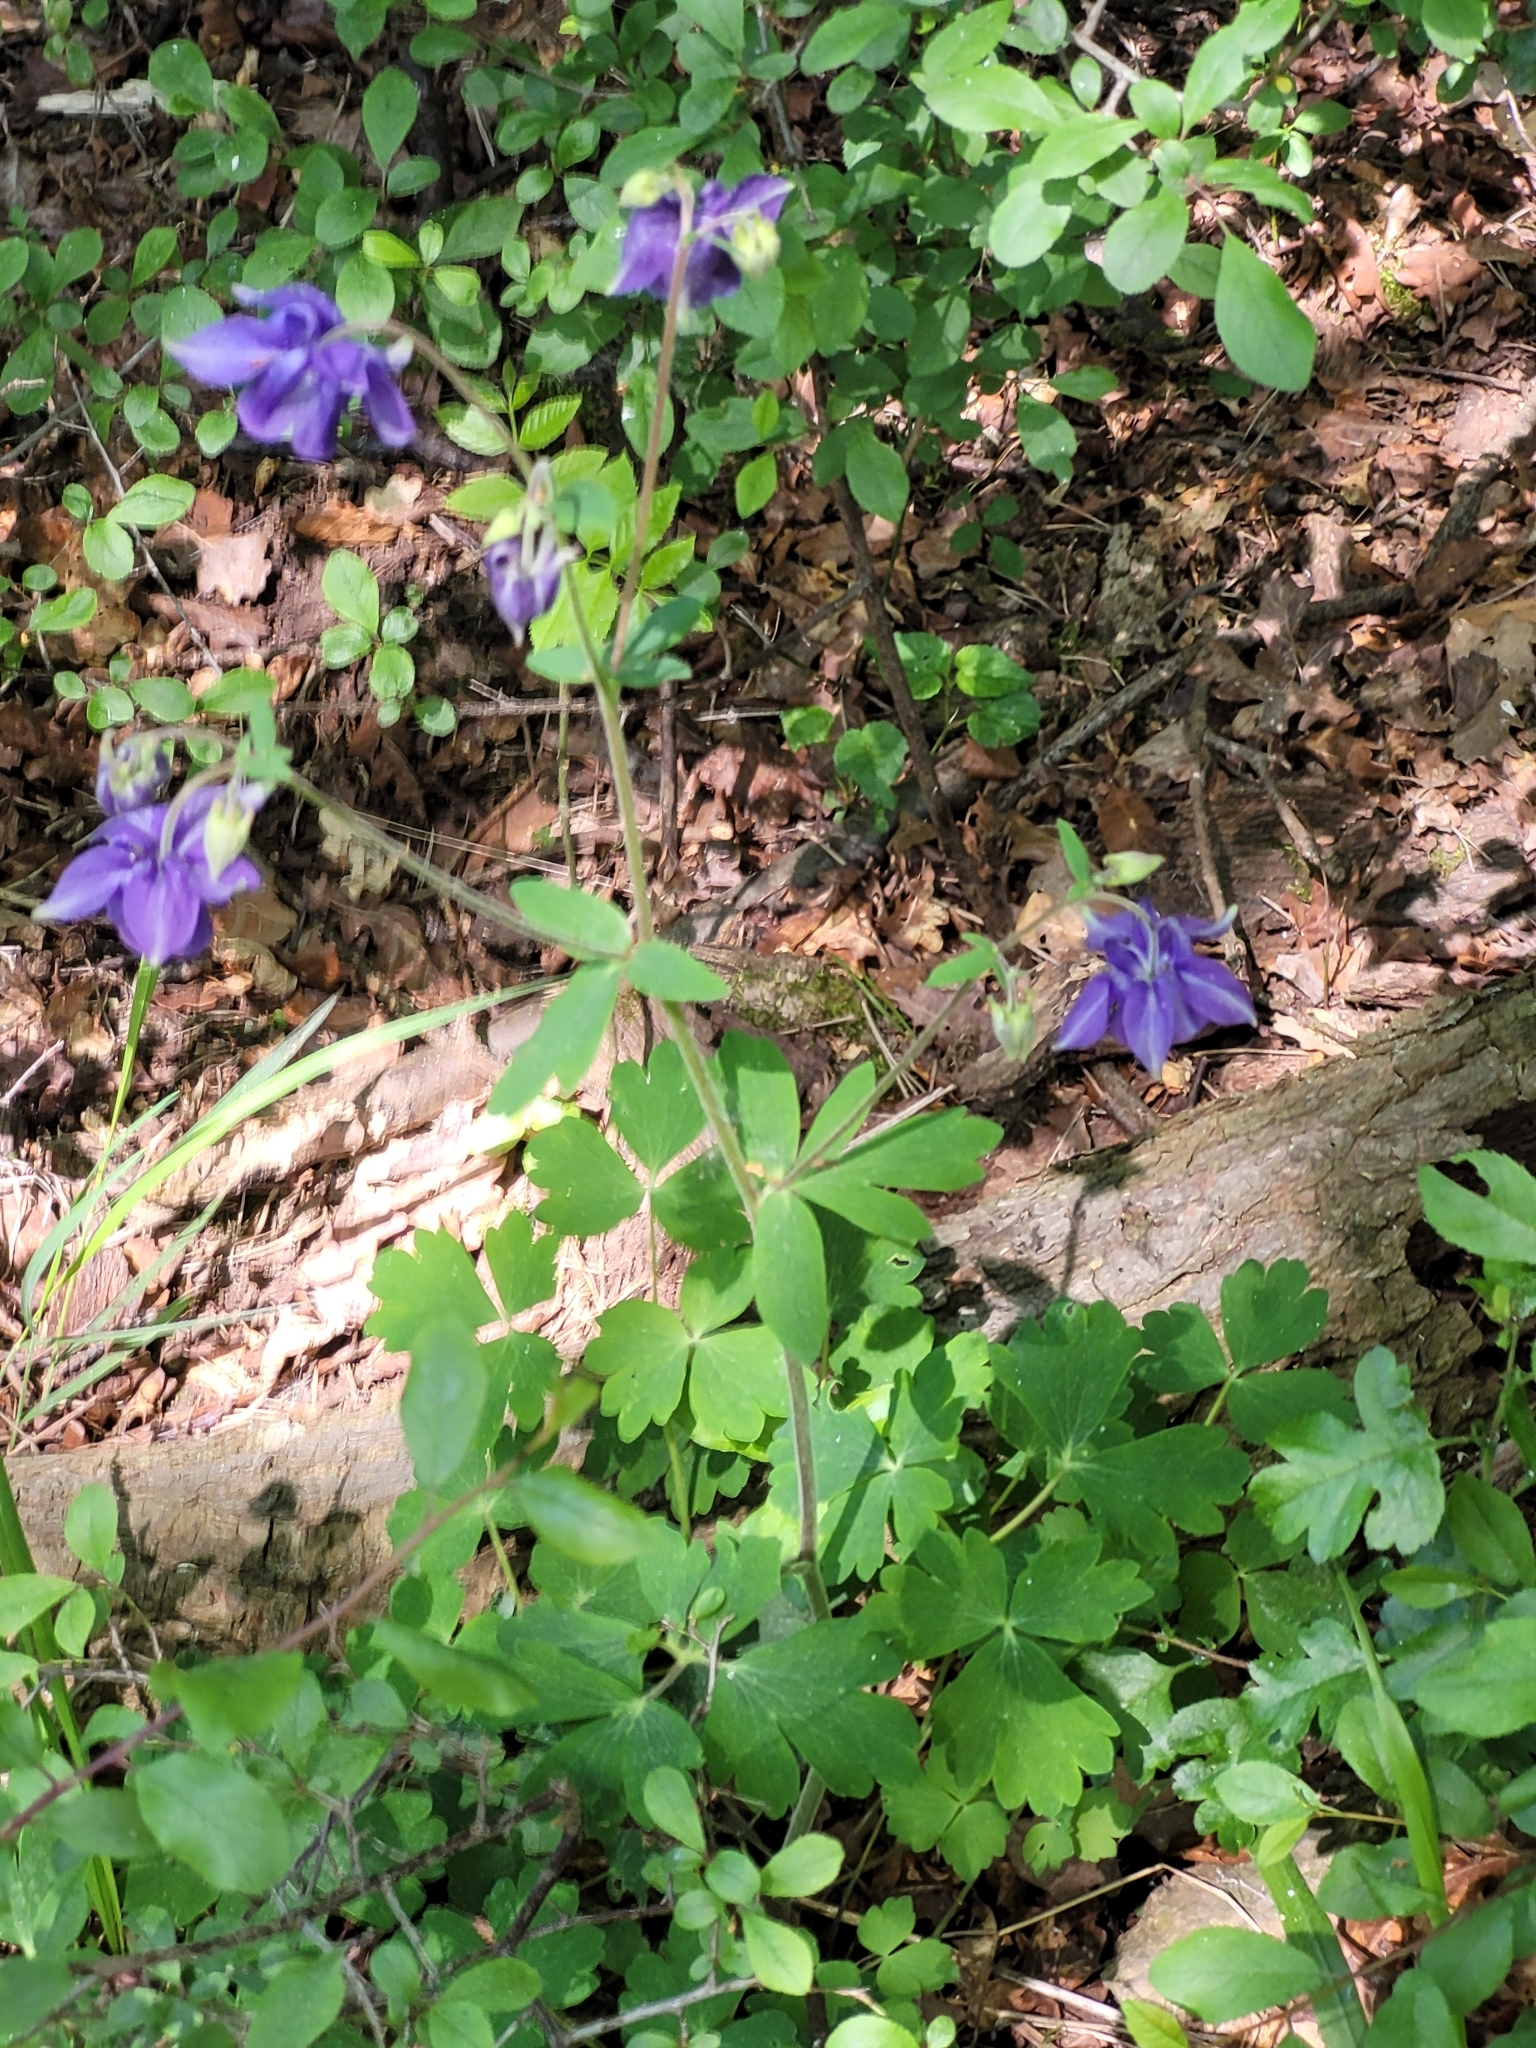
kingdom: Plantae
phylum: Tracheophyta
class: Magnoliopsida
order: Ranunculales
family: Ranunculaceae
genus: Aquilegia
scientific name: Aquilegia vulgaris
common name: Columbine
